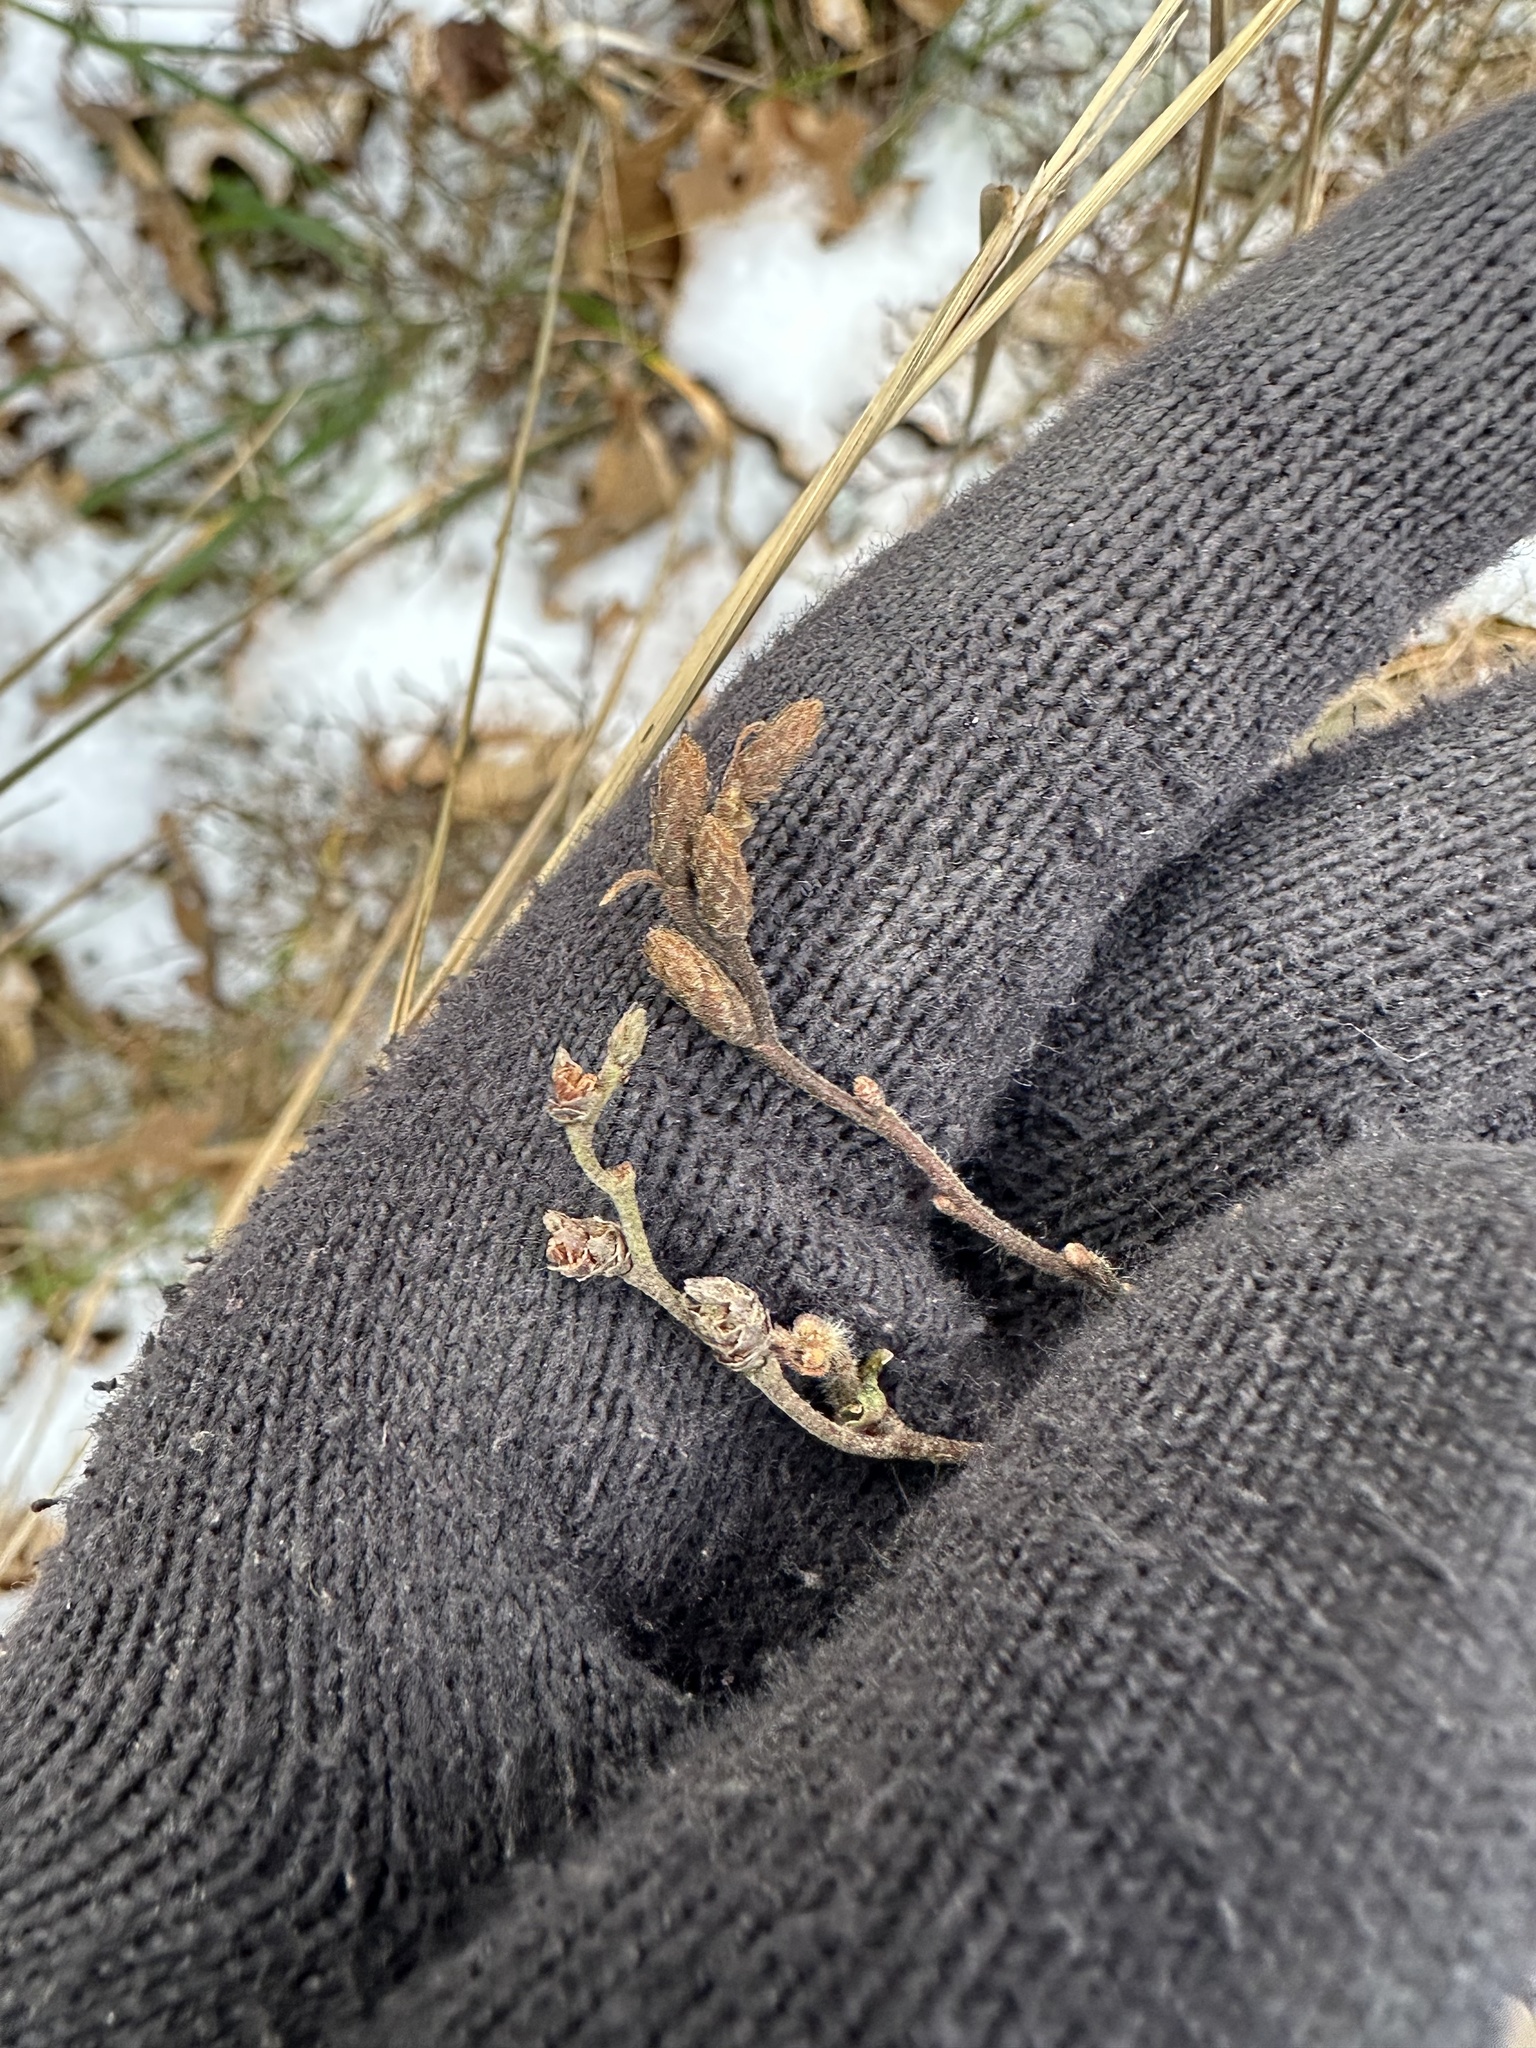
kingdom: Plantae
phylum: Tracheophyta
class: Magnoliopsida
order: Fagales
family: Myricaceae
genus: Comptonia
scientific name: Comptonia peregrina
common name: Sweet-fern
